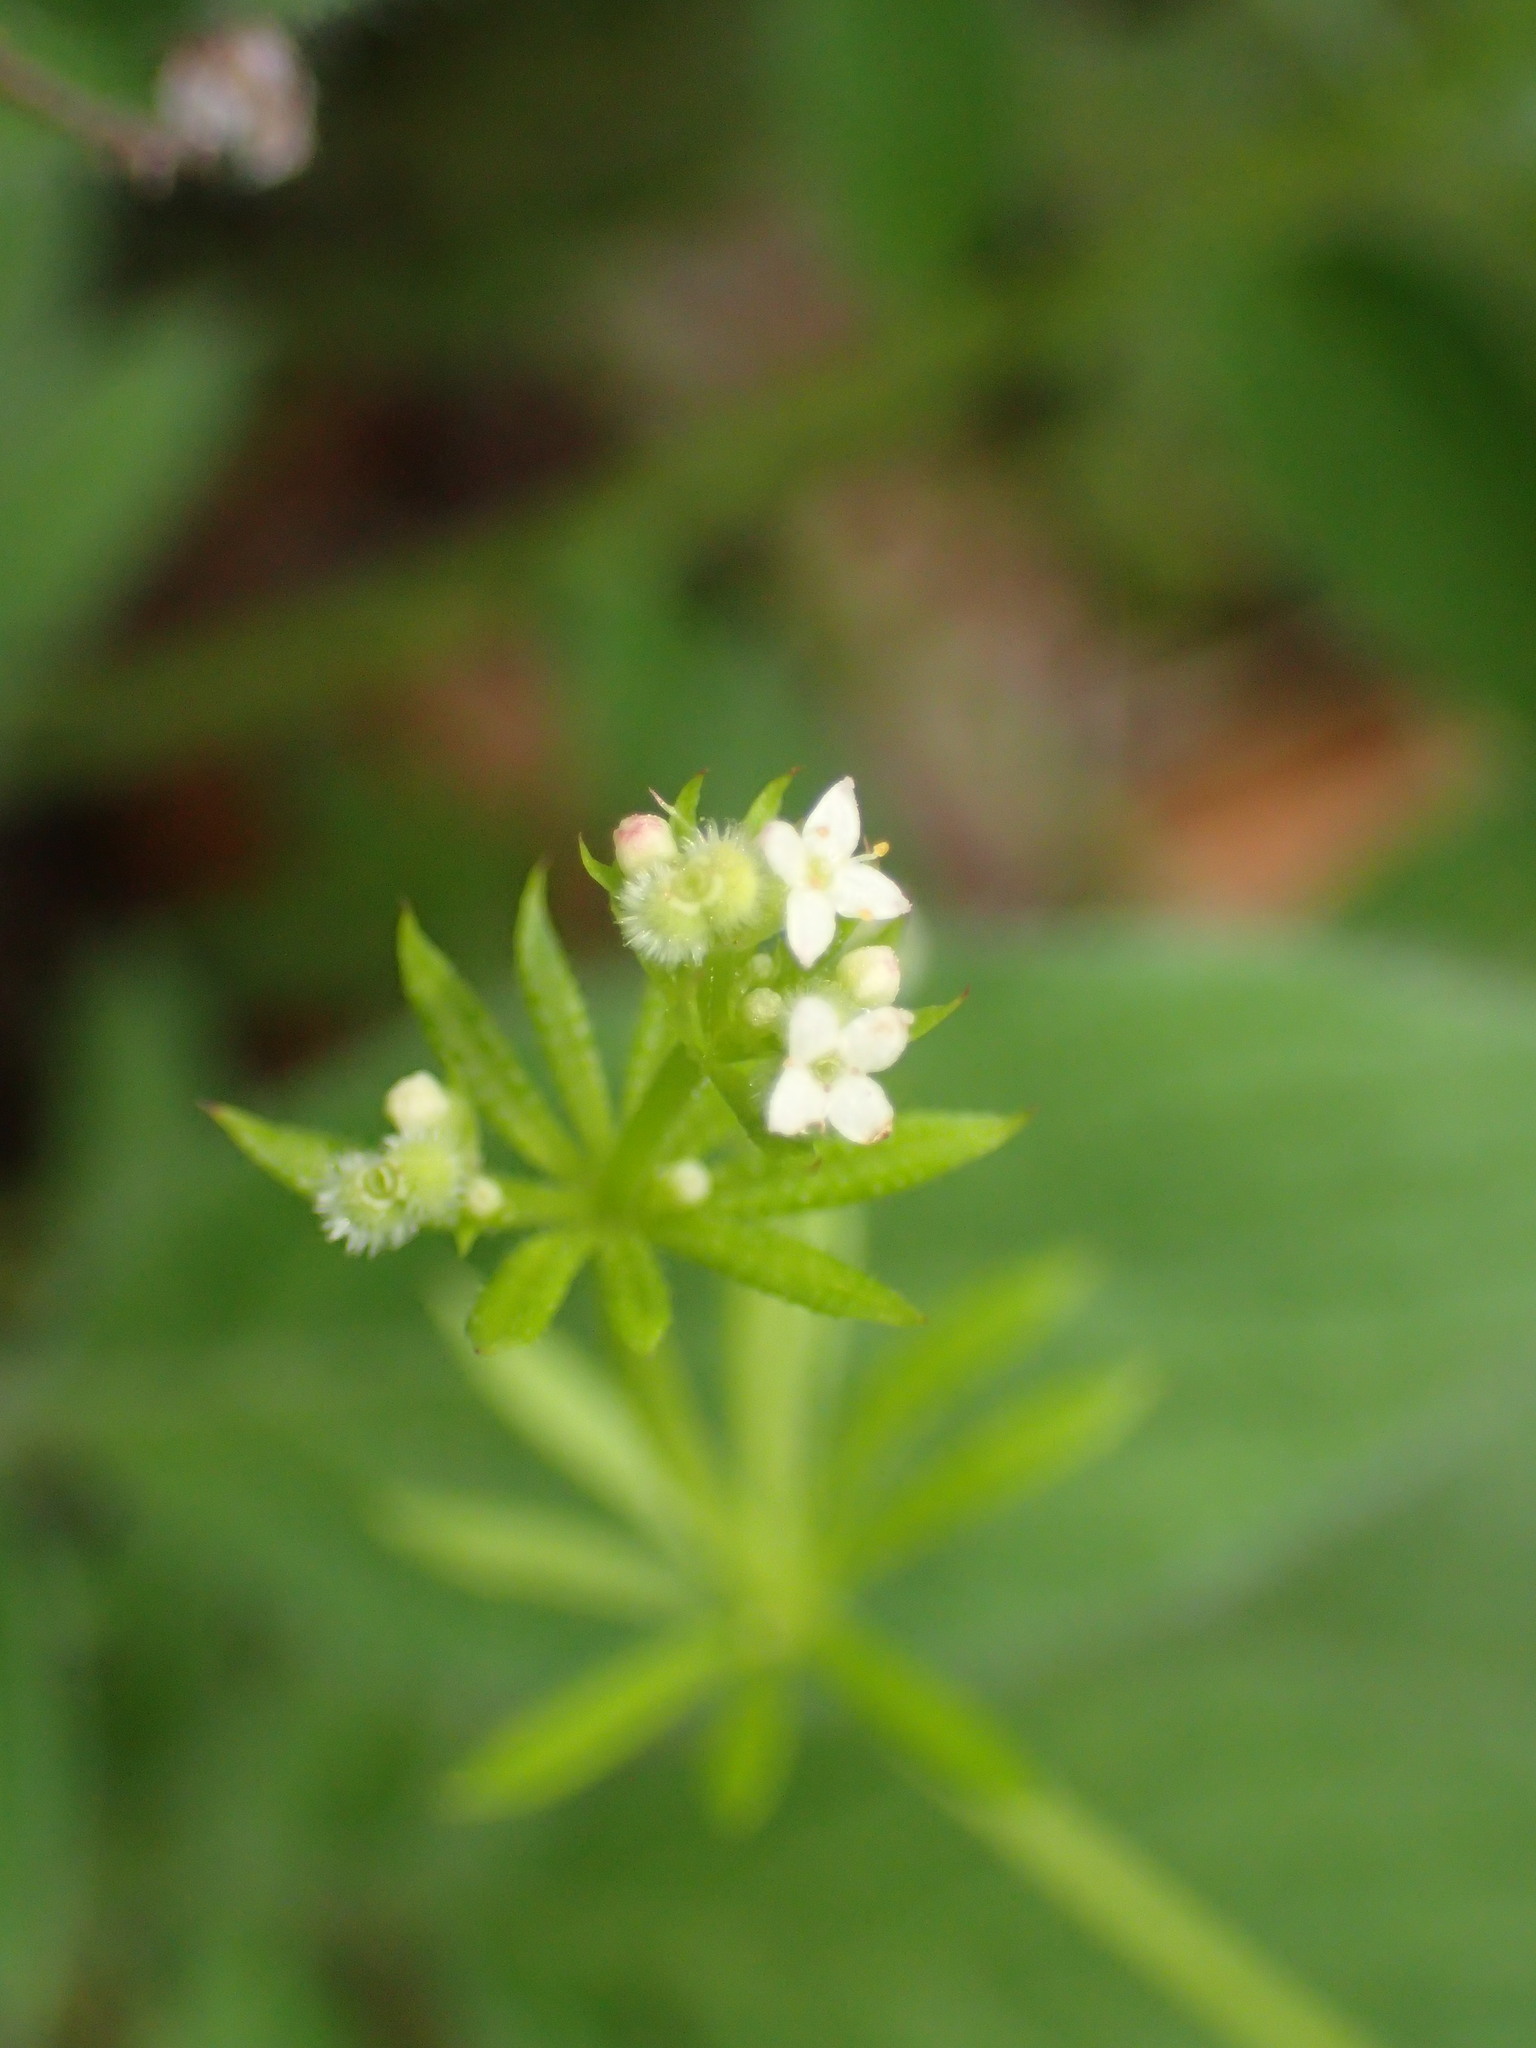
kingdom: Plantae
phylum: Tracheophyta
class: Magnoliopsida
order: Gentianales
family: Rubiaceae
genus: Galium
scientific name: Galium aparine
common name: Cleavers
